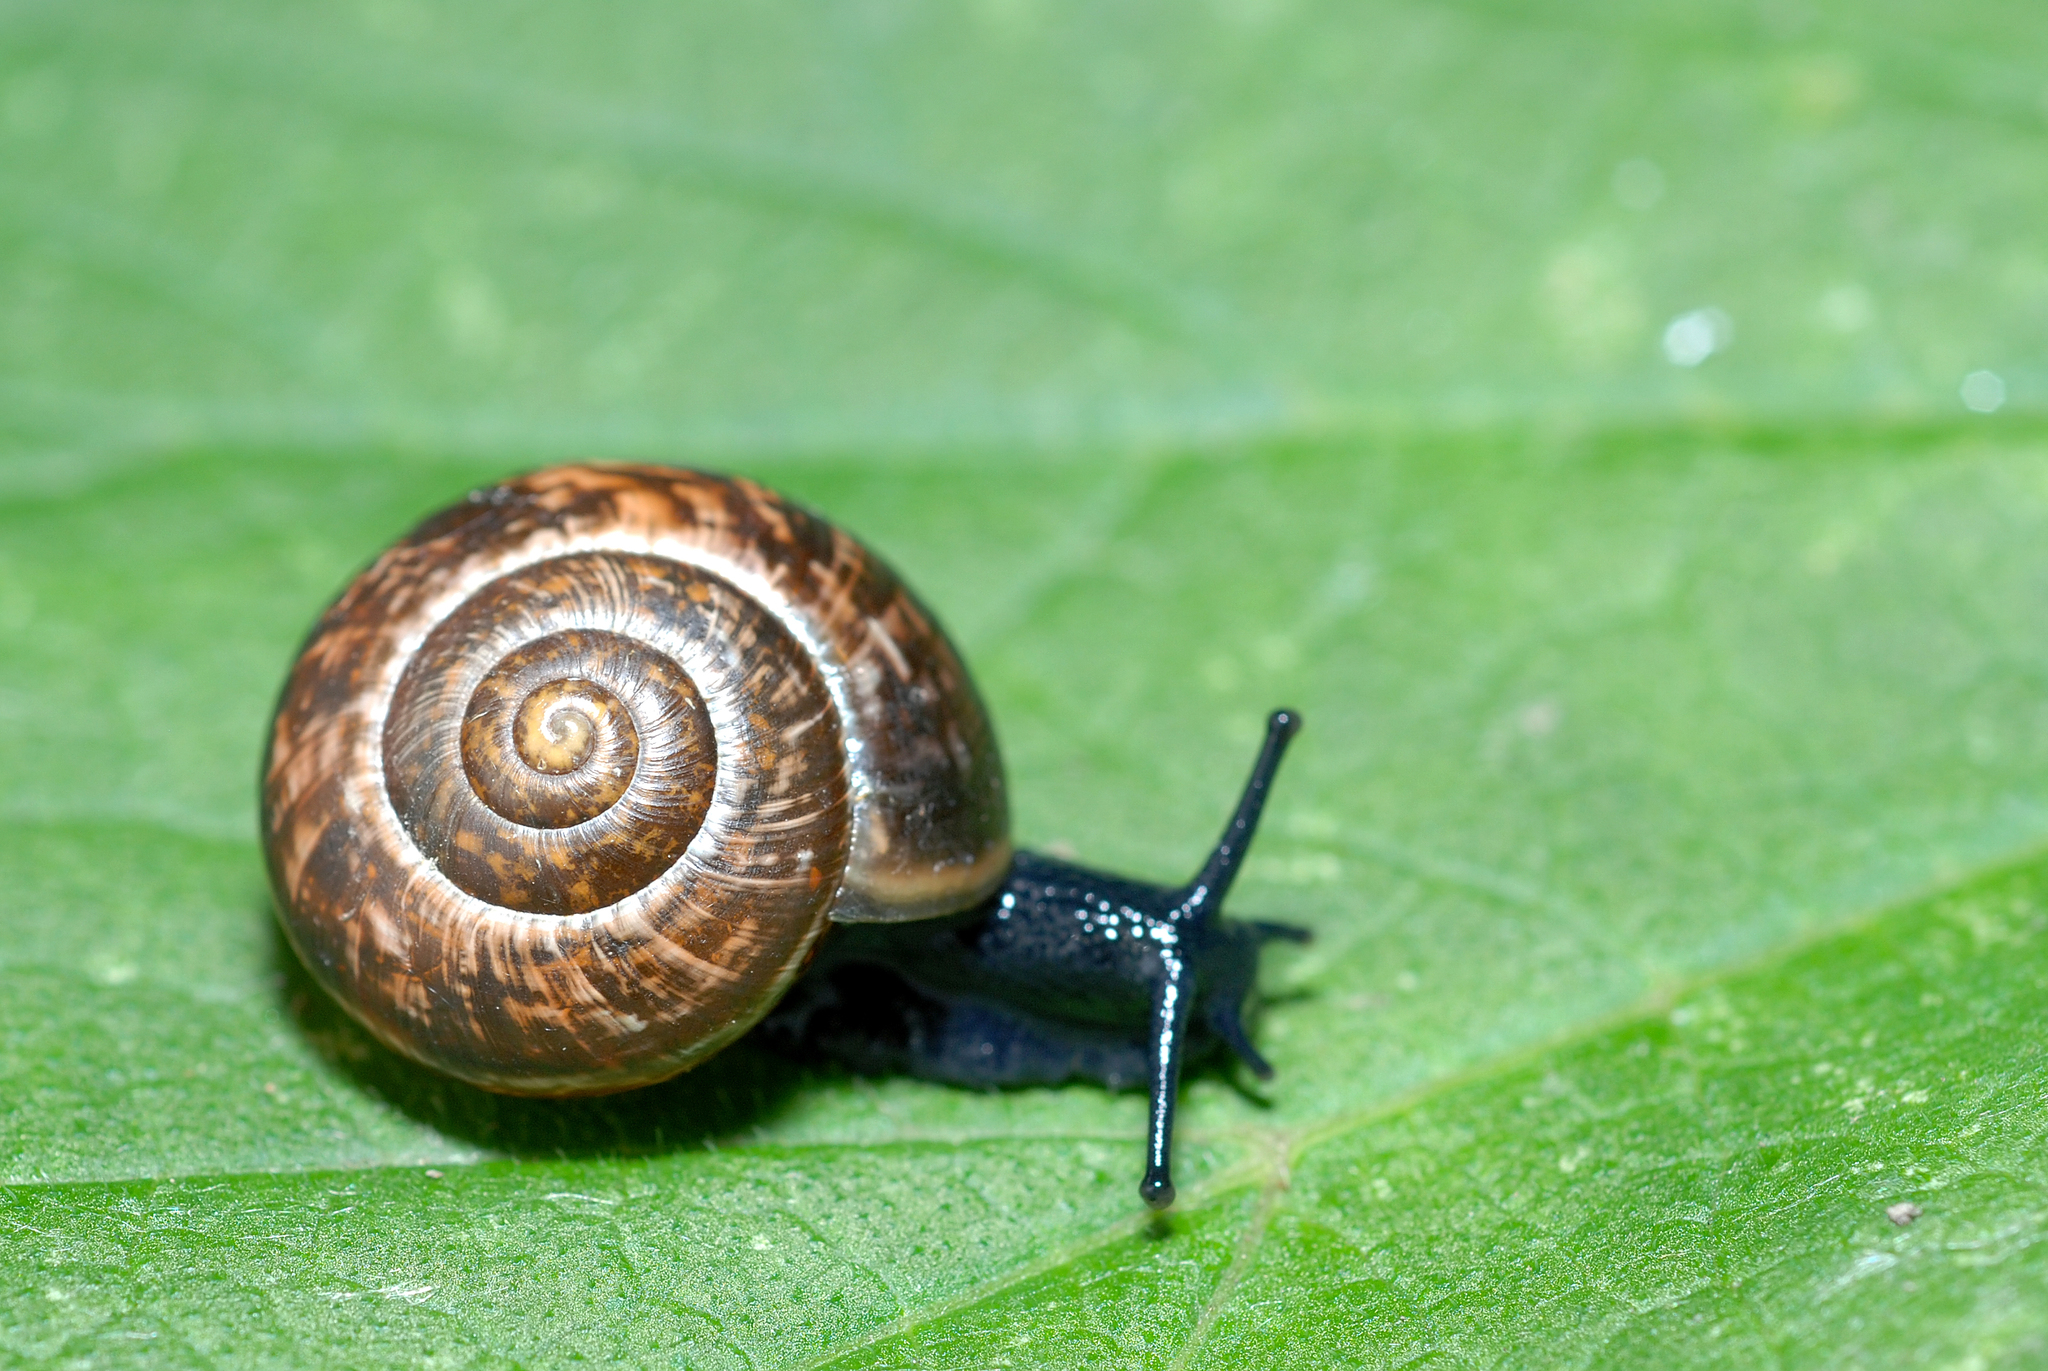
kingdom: Animalia
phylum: Mollusca
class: Gastropoda
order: Stylommatophora
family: Helicidae
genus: Arianta
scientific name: Arianta arbustorum
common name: Copse snail
